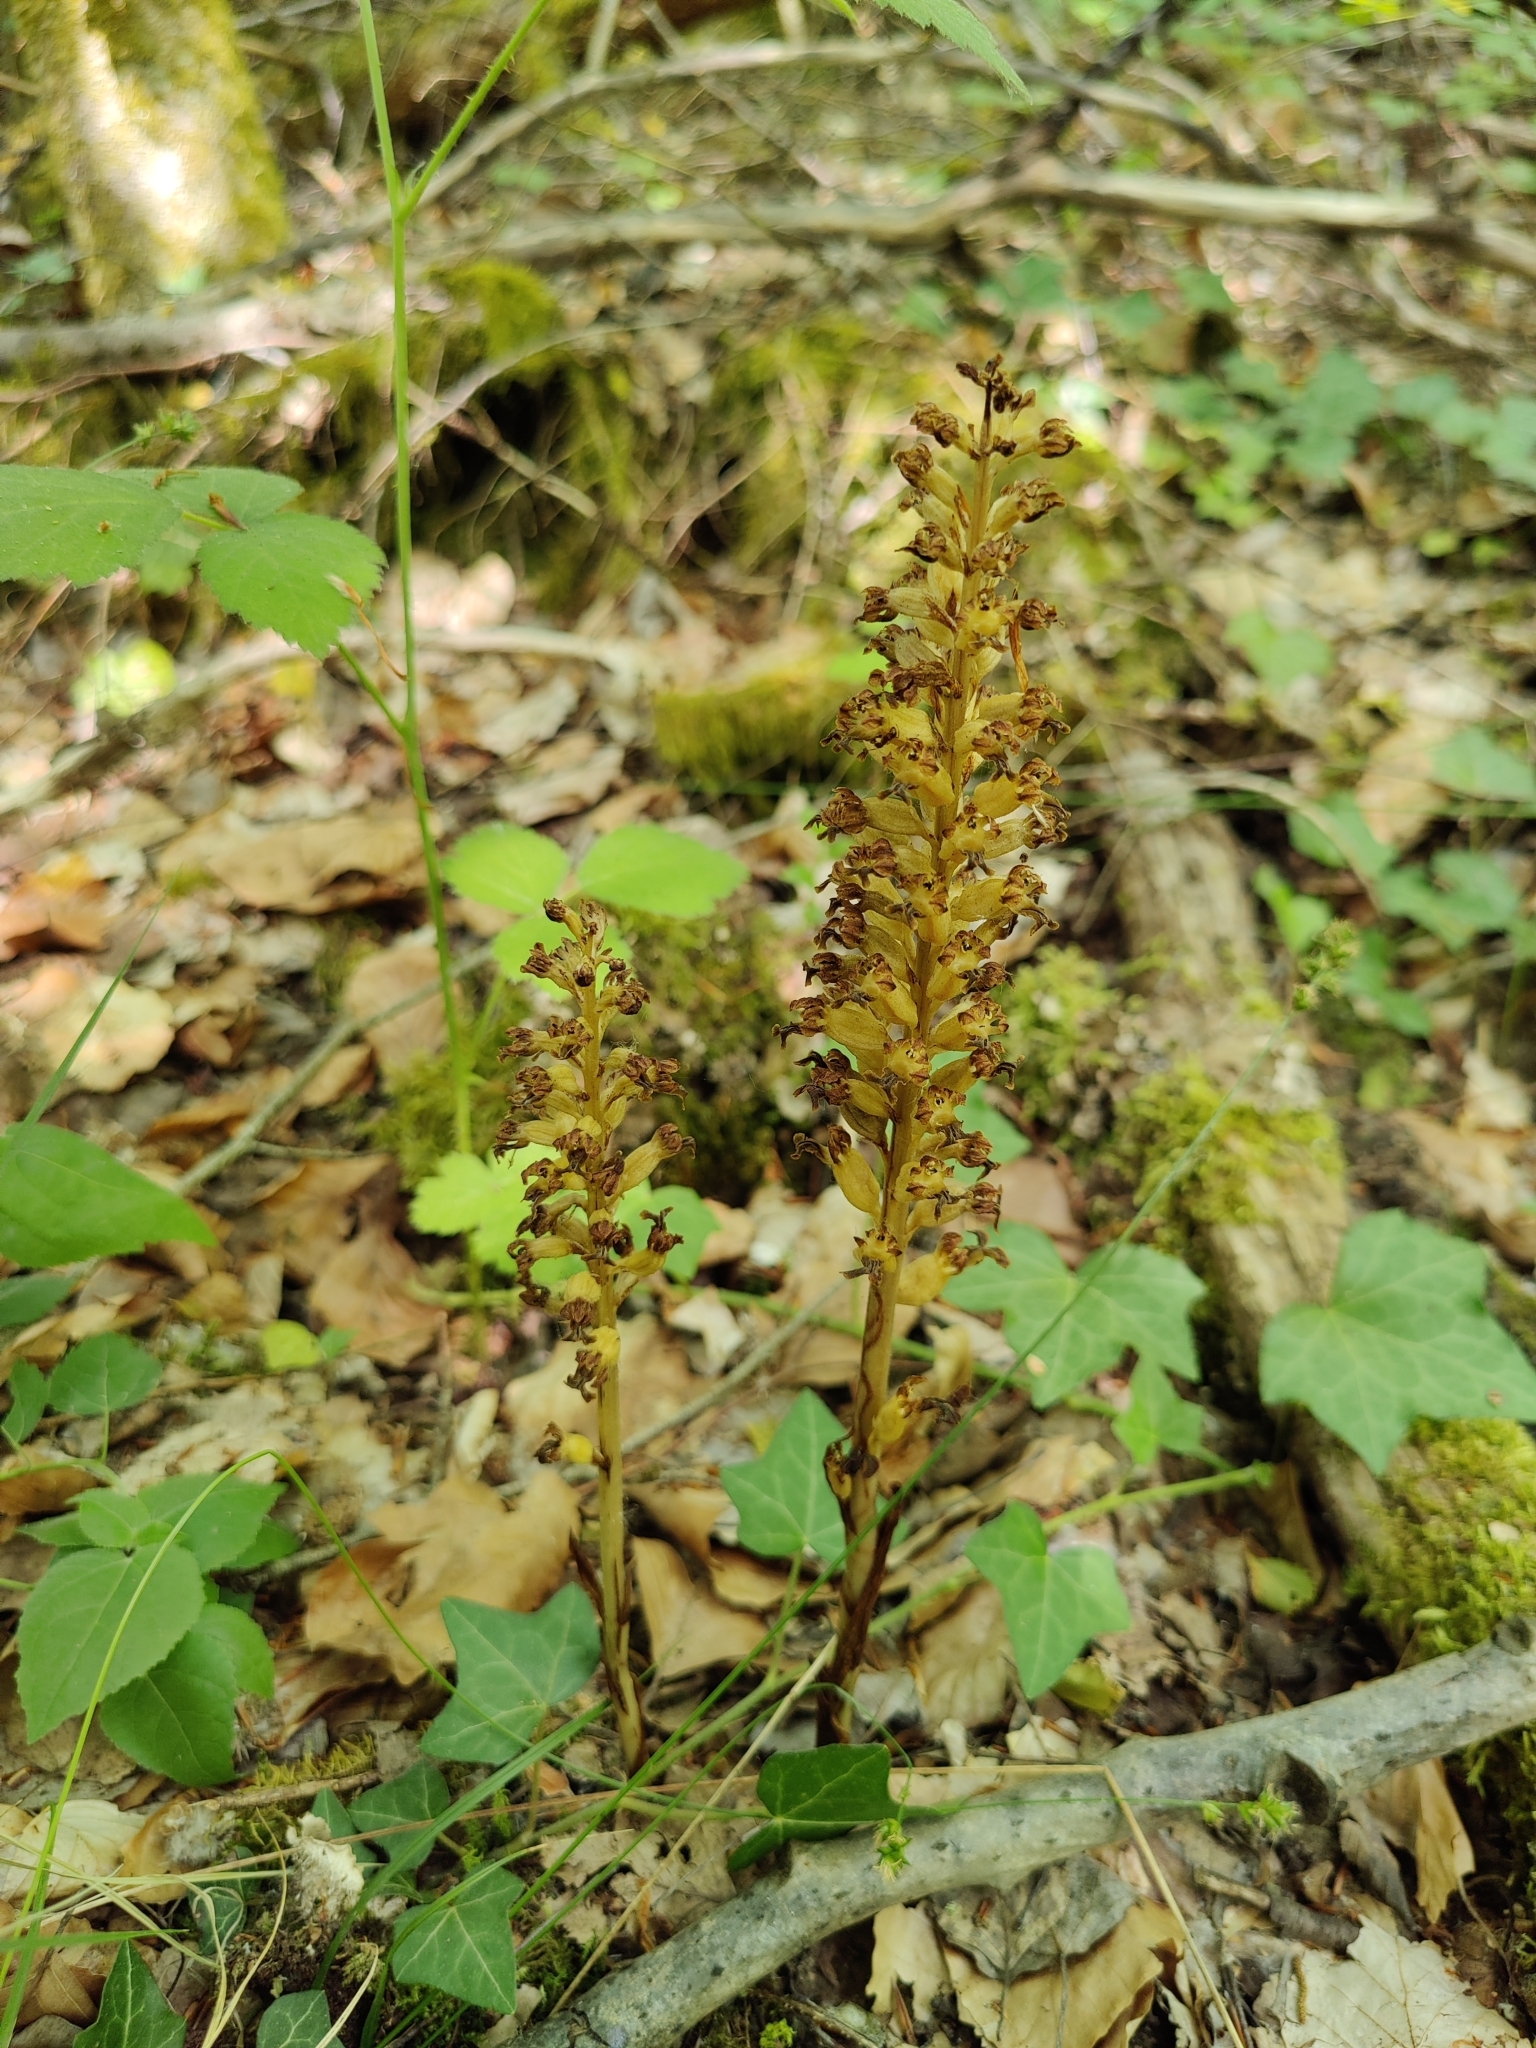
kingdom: Plantae
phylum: Tracheophyta
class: Liliopsida
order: Asparagales
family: Orchidaceae
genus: Neottia
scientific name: Neottia nidus-avis
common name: Bird's-nest orchid
